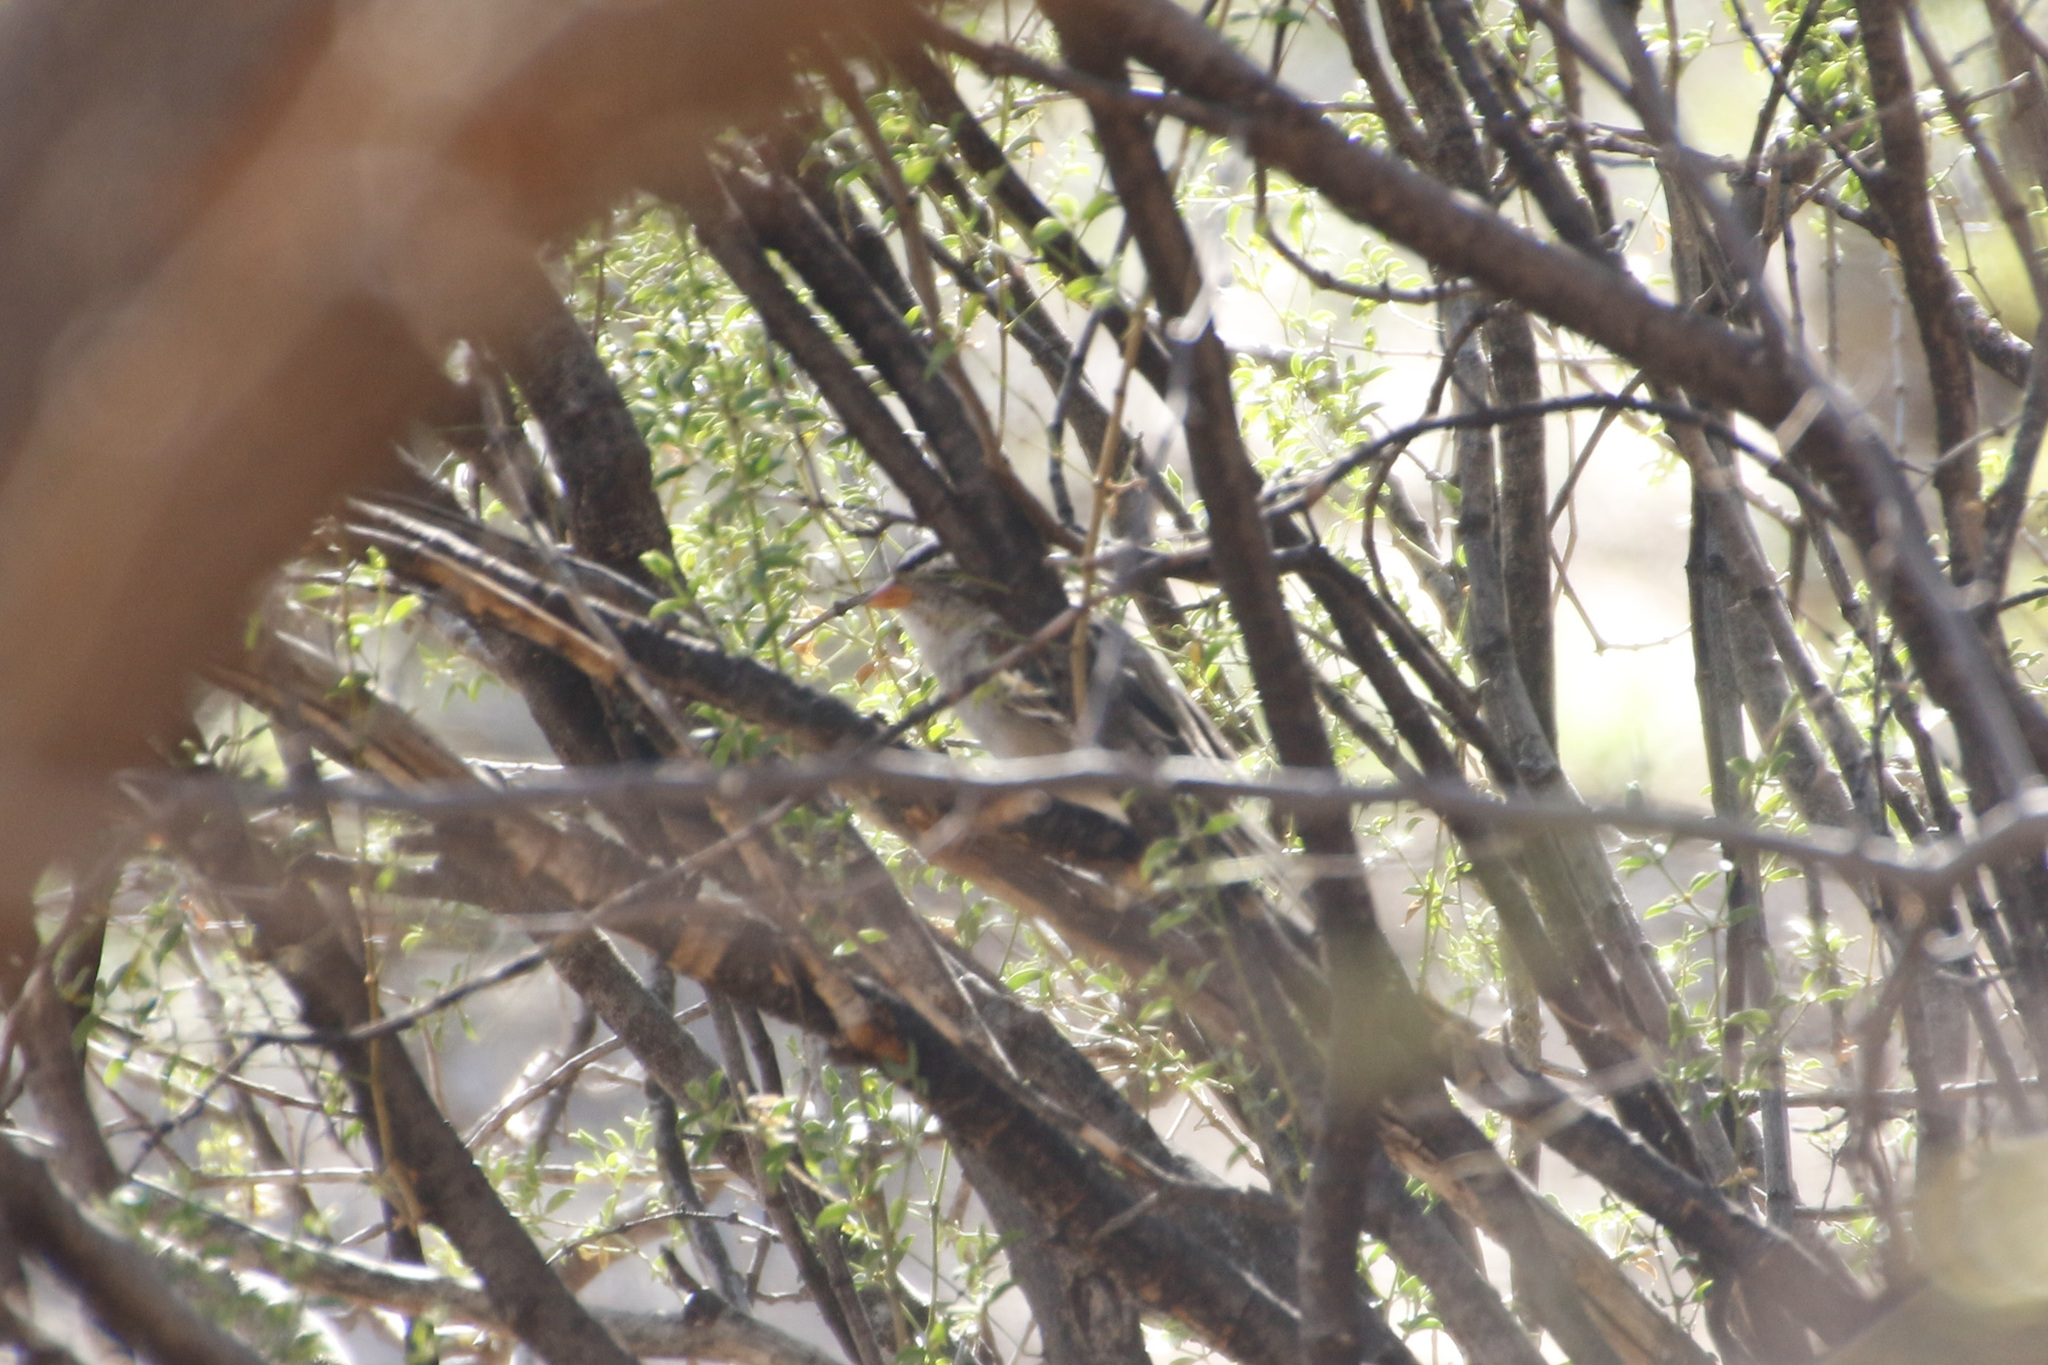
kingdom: Animalia
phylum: Chordata
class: Aves
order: Passeriformes
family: Passerellidae
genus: Zonotrichia
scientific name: Zonotrichia leucophrys
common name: White-crowned sparrow
